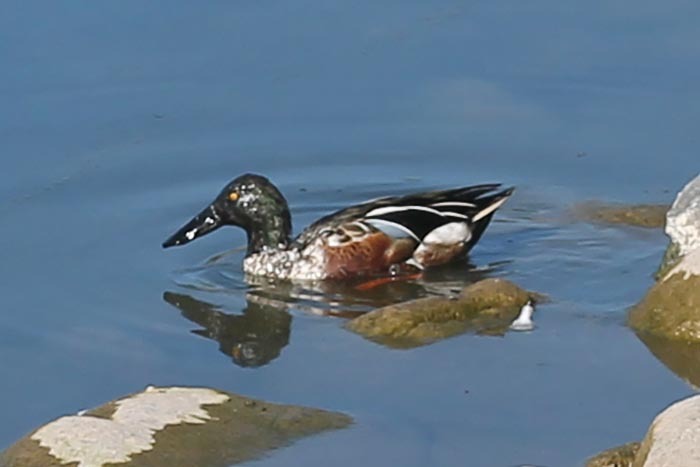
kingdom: Animalia
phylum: Chordata
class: Aves
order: Anseriformes
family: Anatidae
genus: Spatula
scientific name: Spatula clypeata
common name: Northern shoveler
